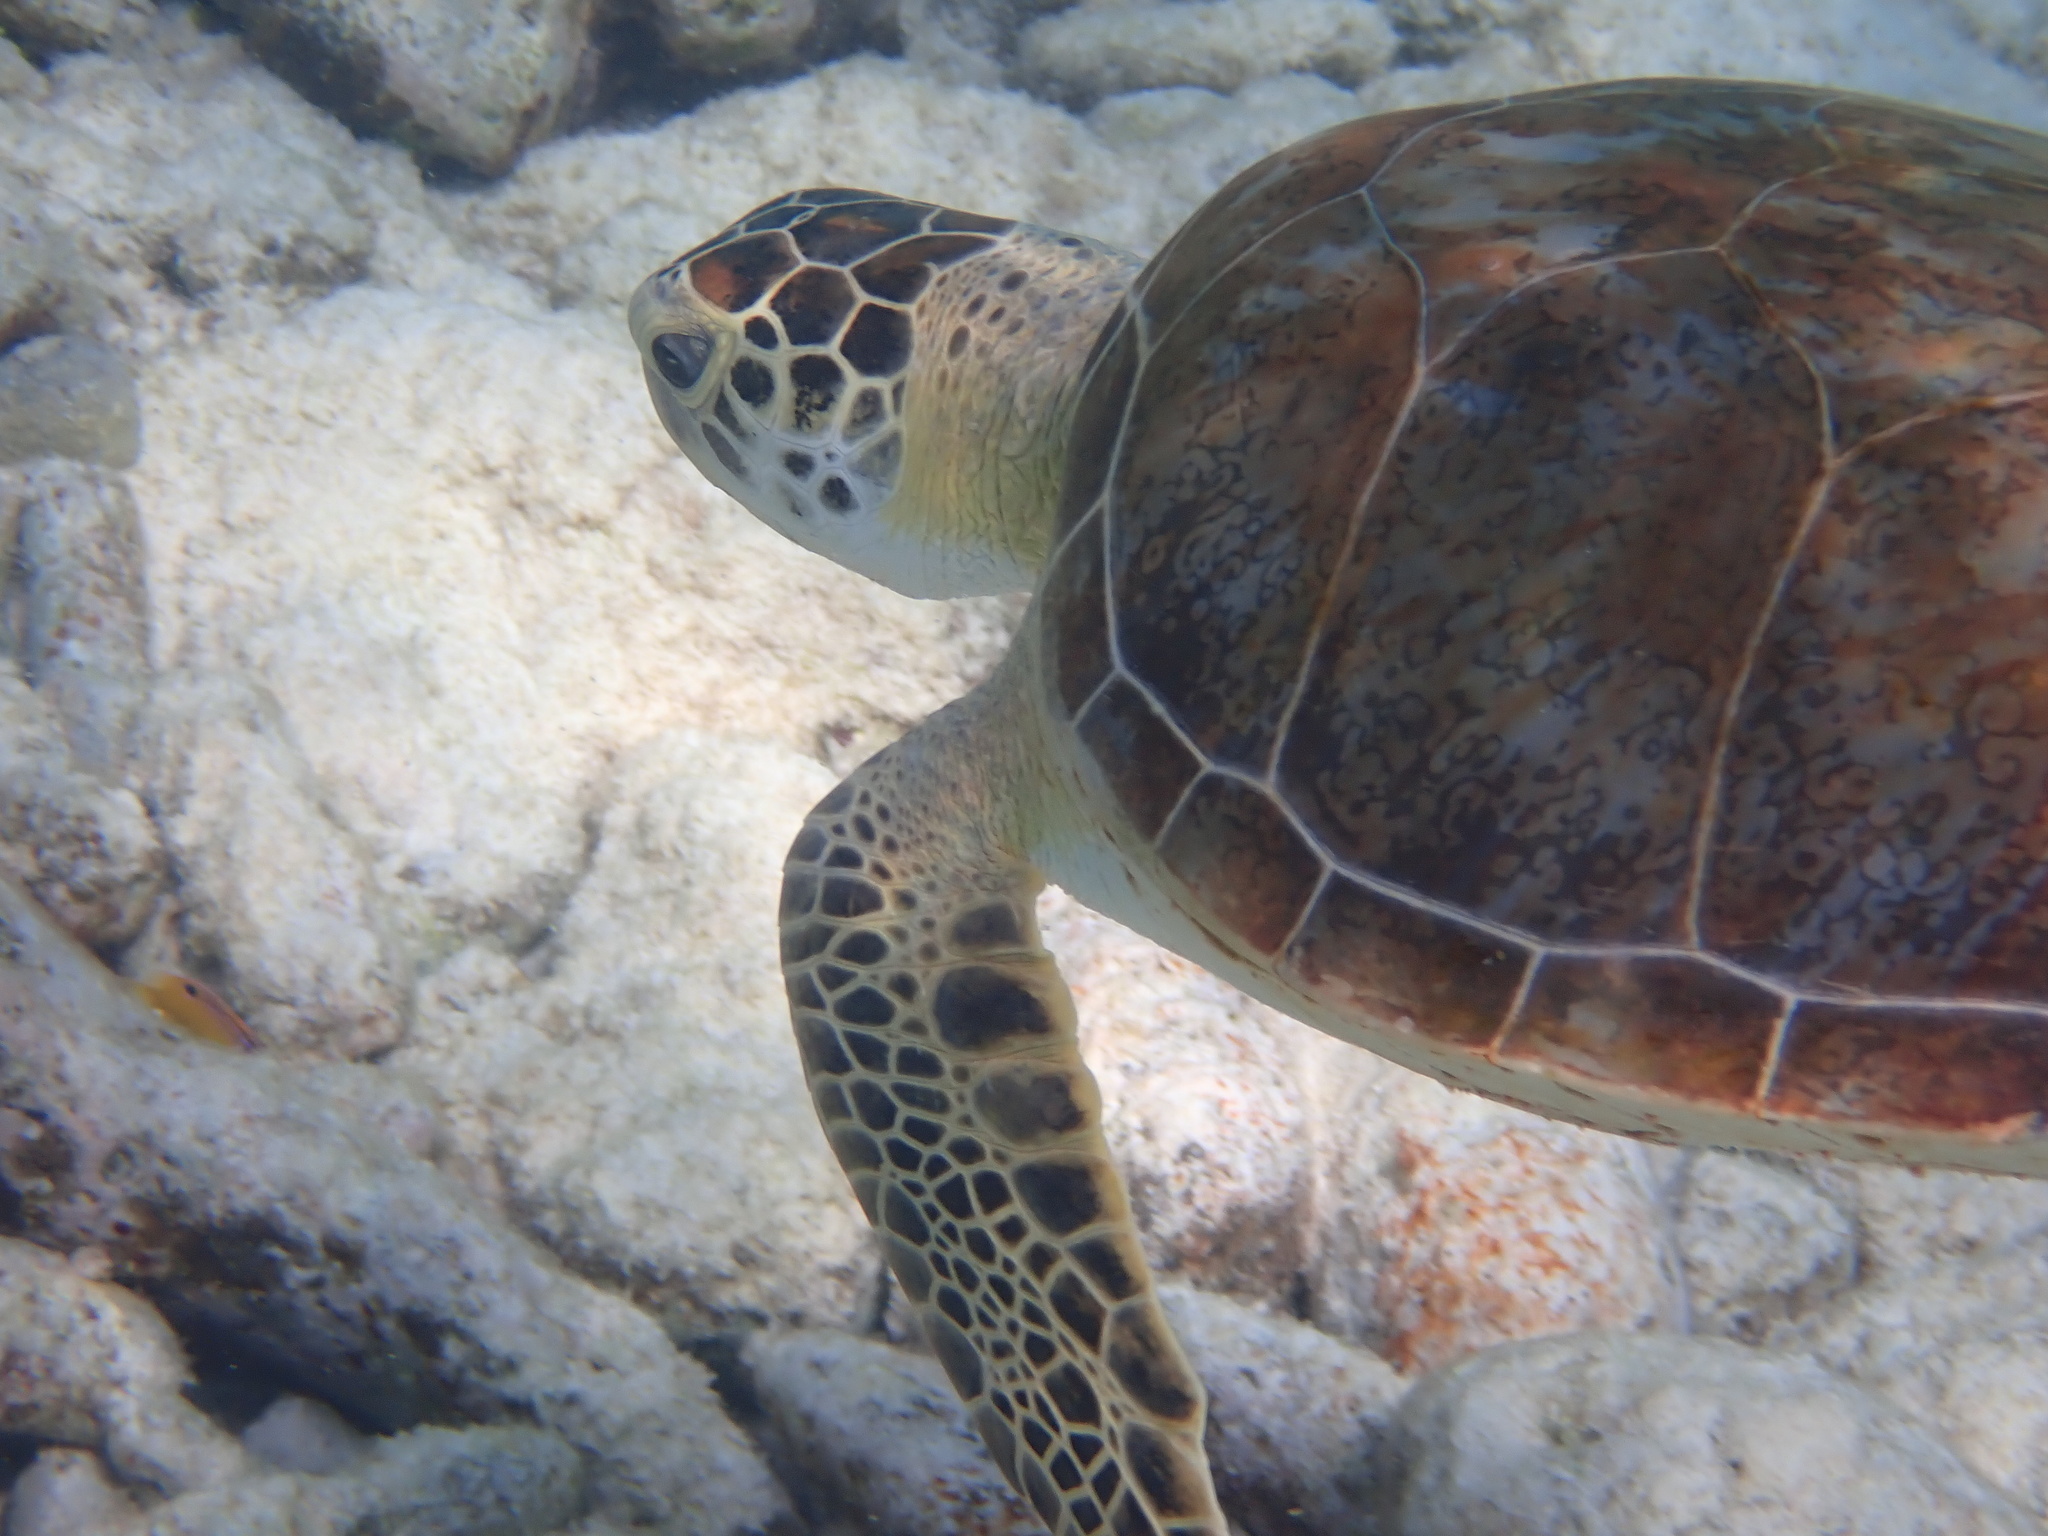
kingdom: Animalia
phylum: Chordata
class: Testudines
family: Cheloniidae
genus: Chelonia
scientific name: Chelonia mydas
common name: Green turtle
